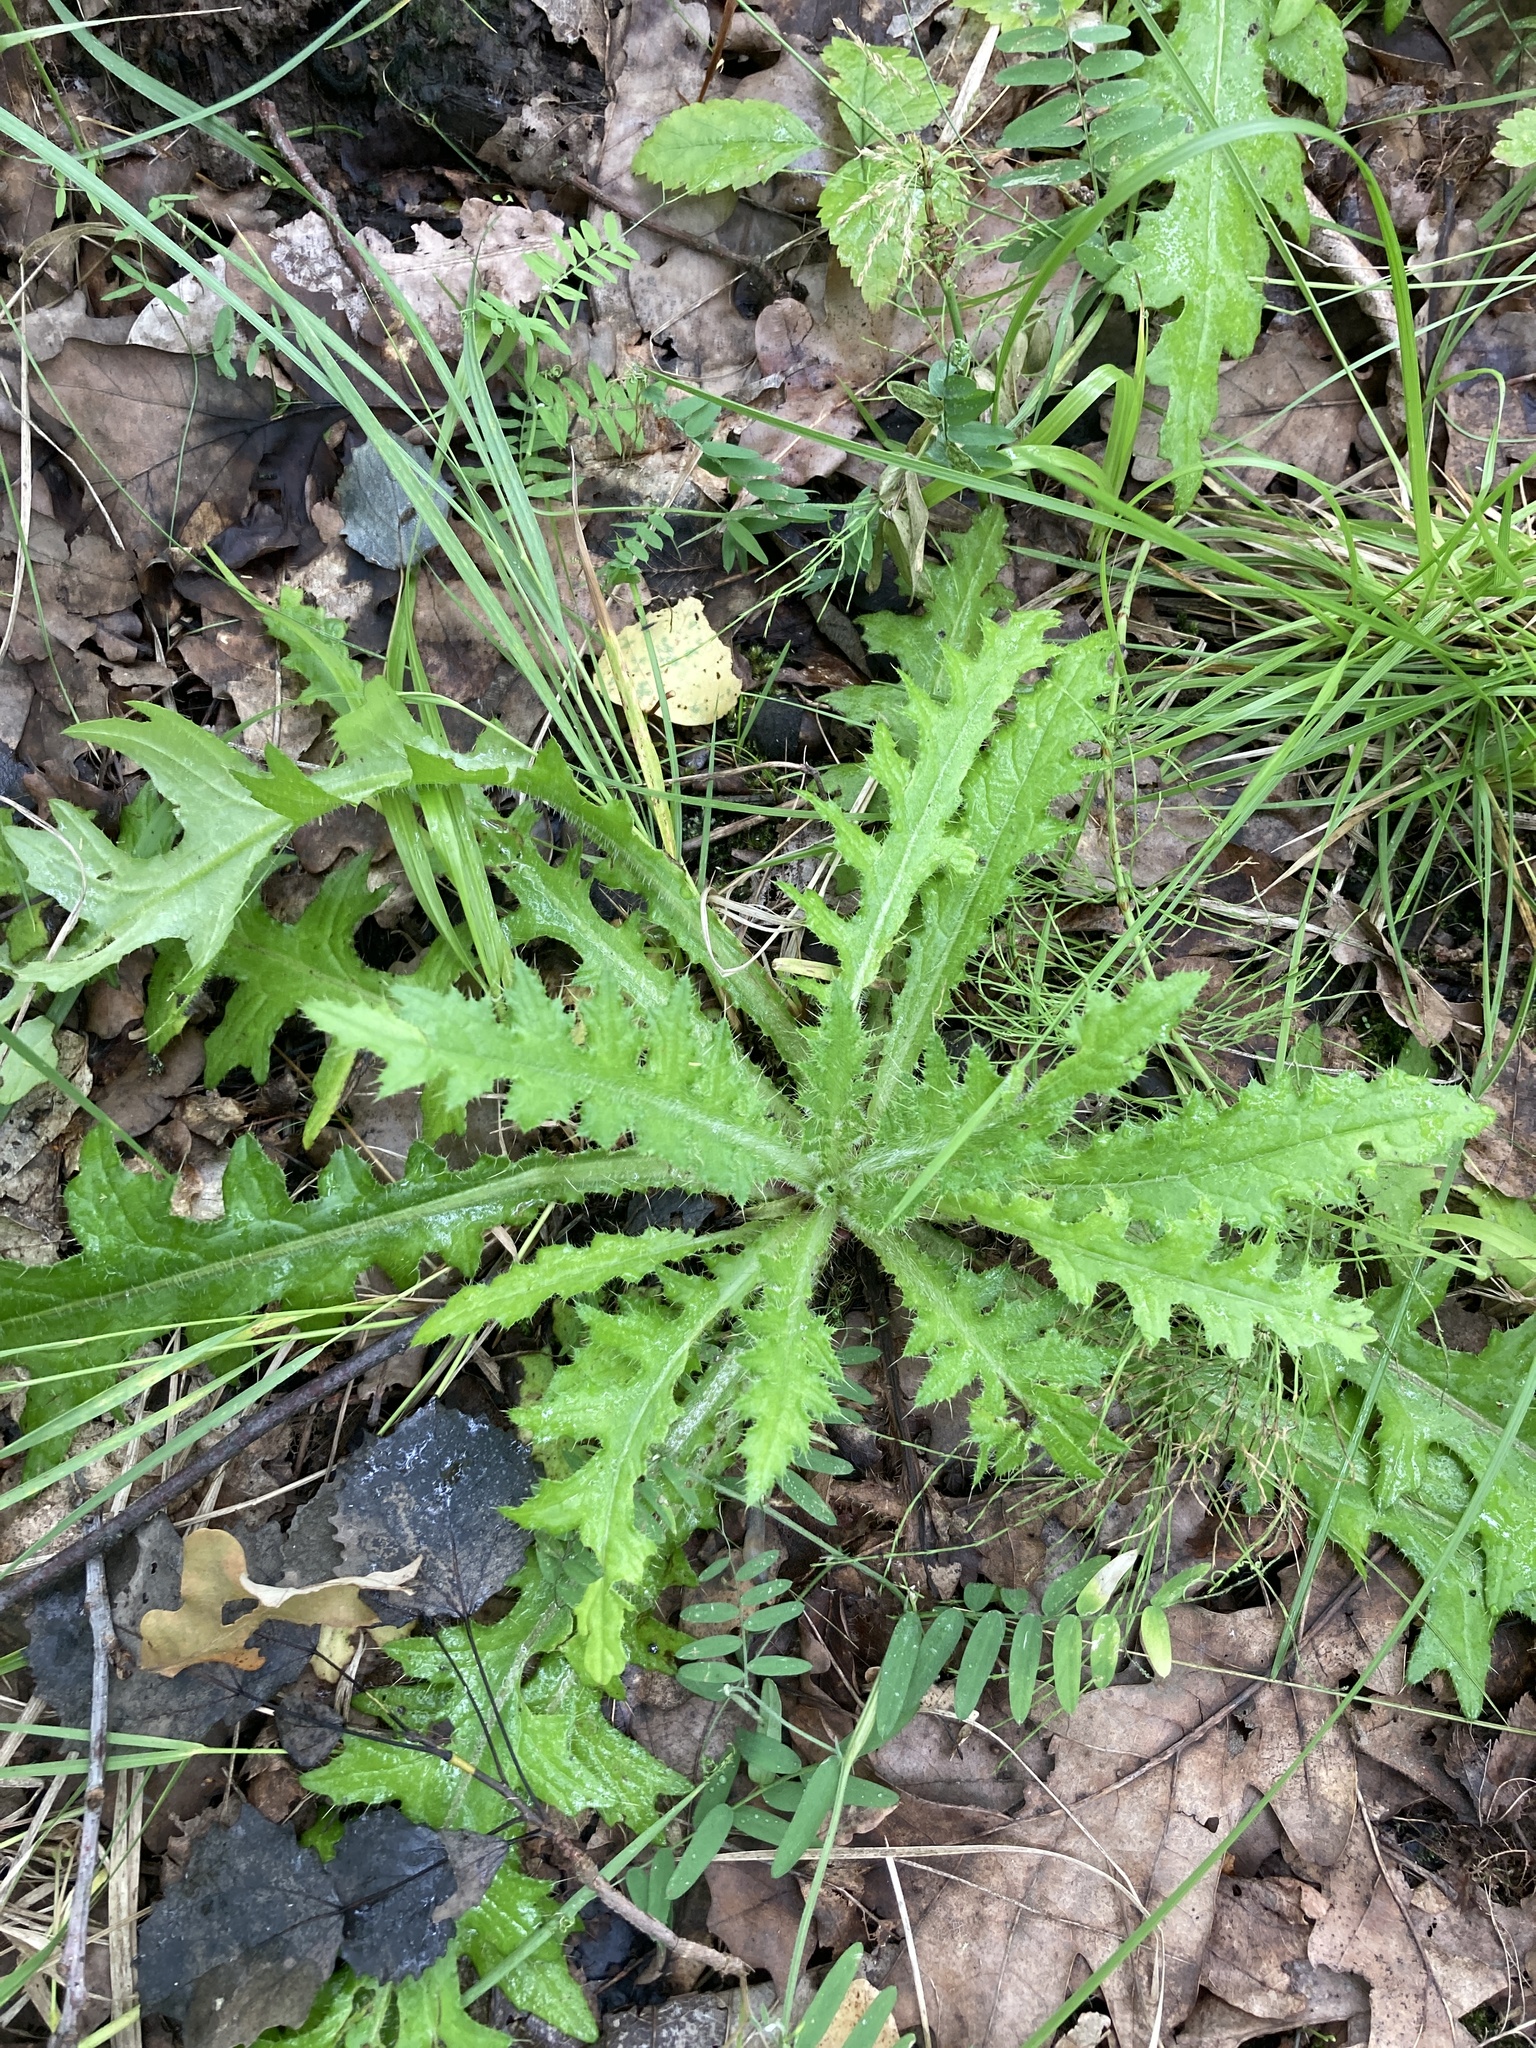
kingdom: Plantae
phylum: Tracheophyta
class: Magnoliopsida
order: Asterales
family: Asteraceae
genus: Cirsium
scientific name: Cirsium palustre
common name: Marsh thistle
